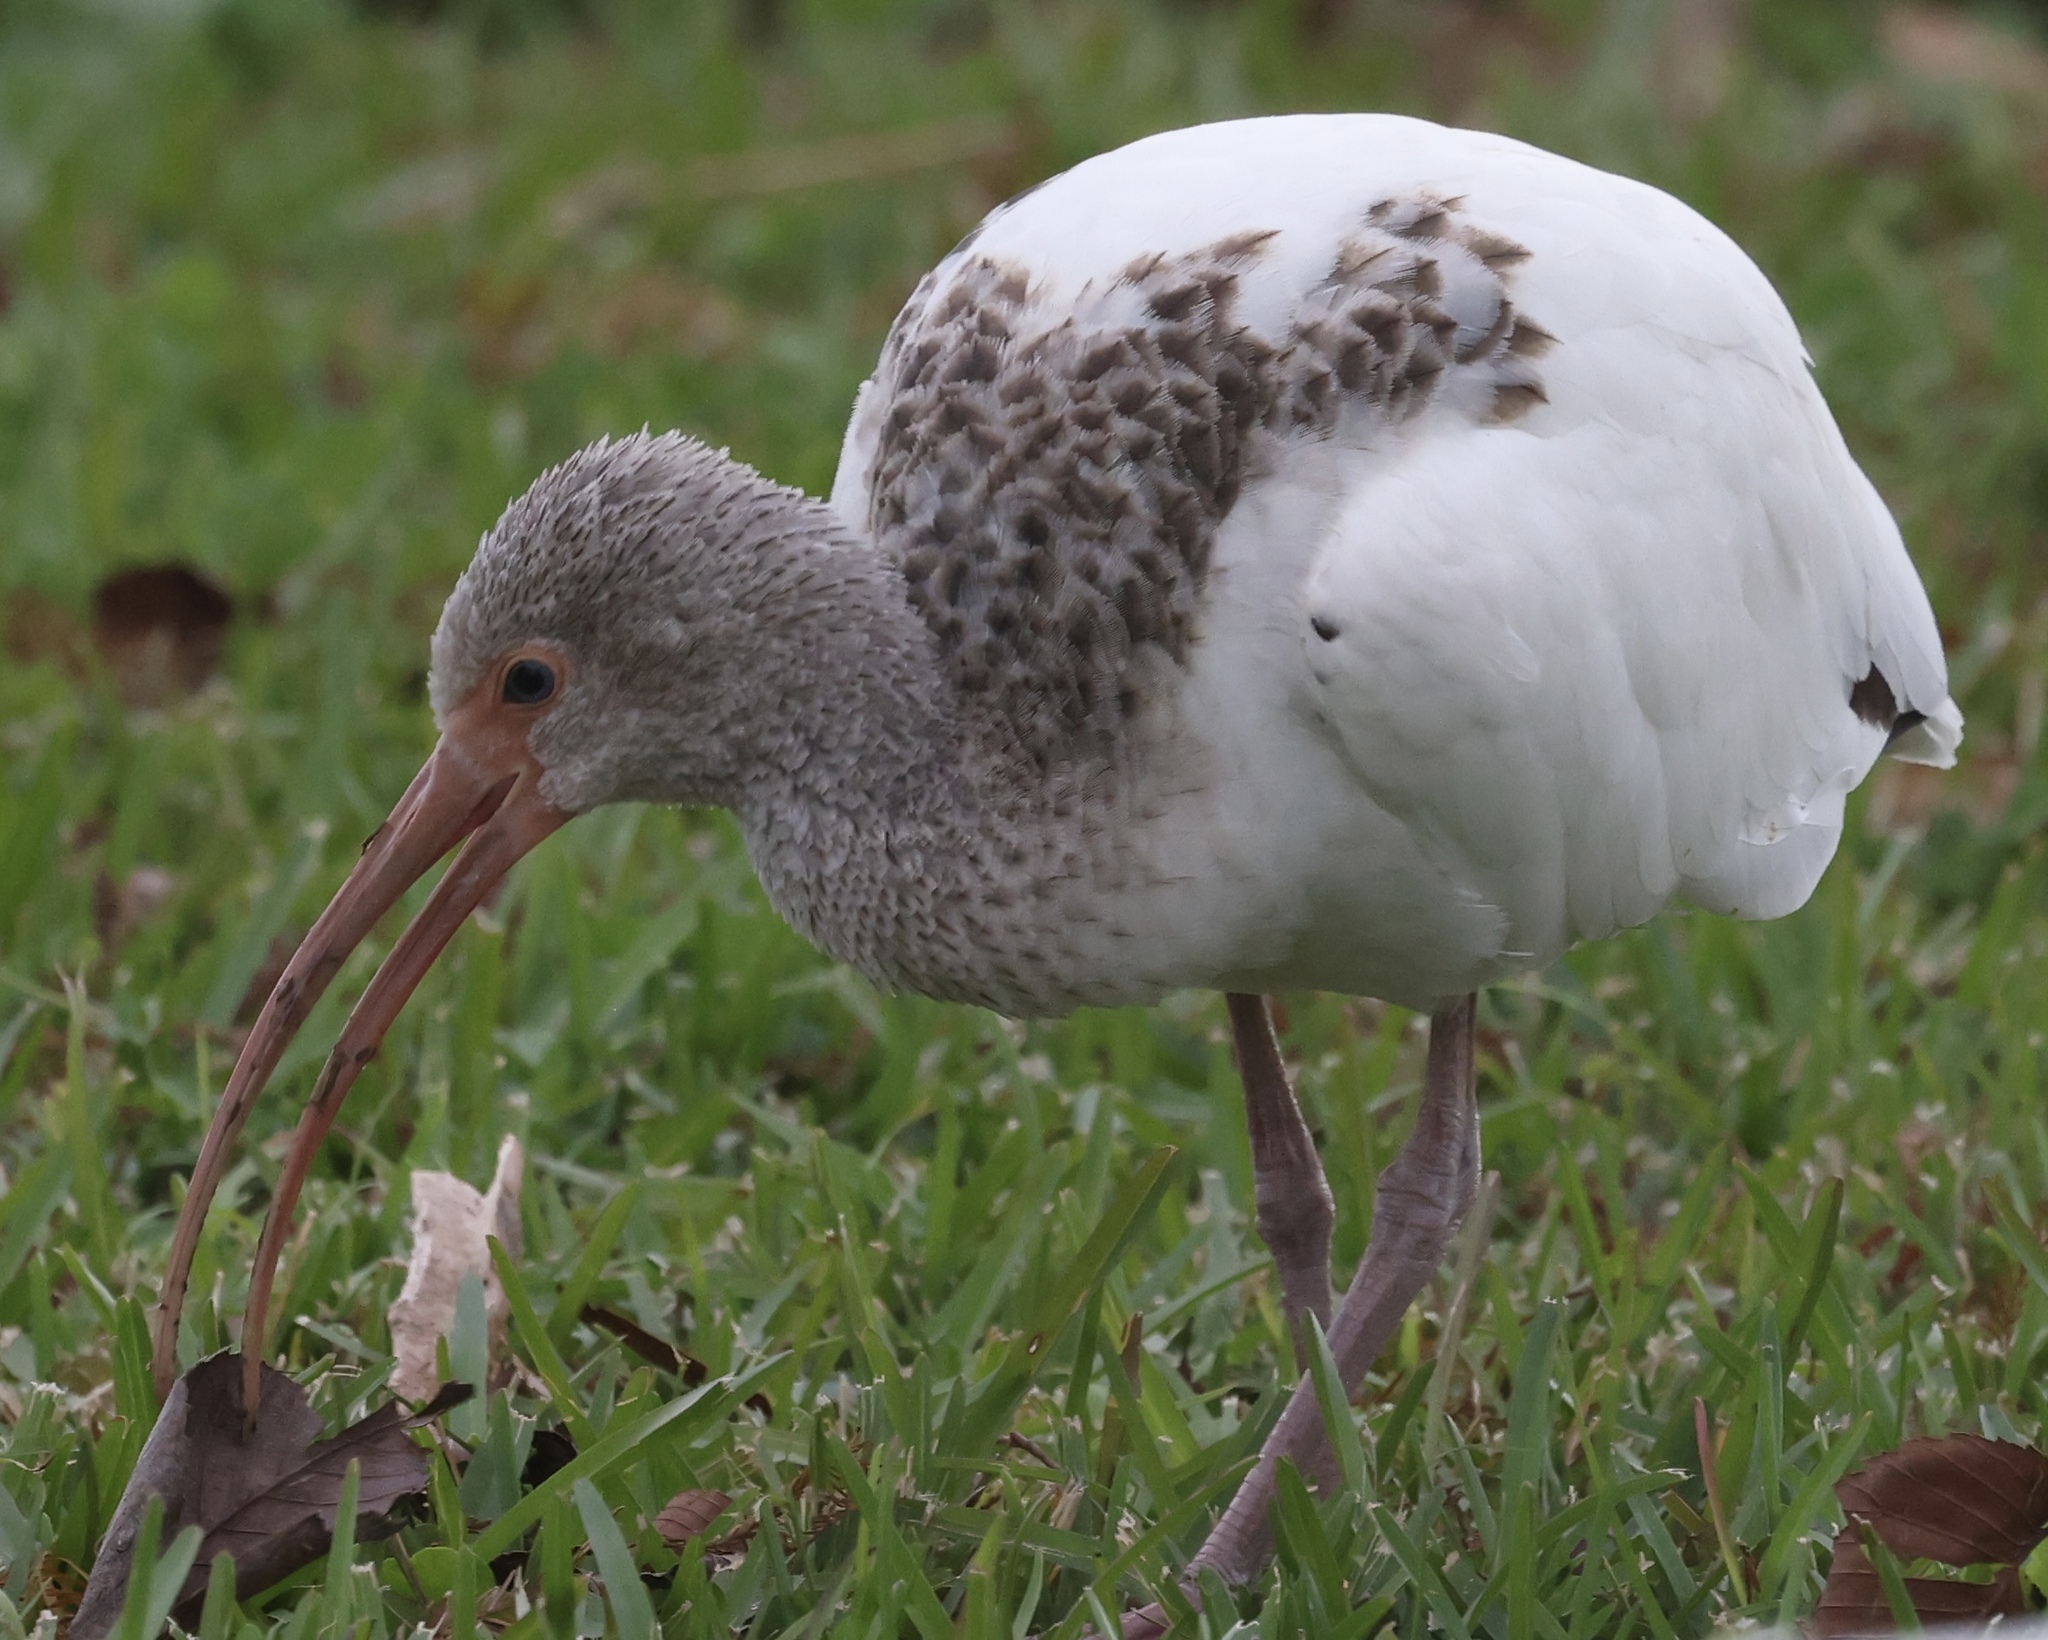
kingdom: Animalia
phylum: Chordata
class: Aves
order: Pelecaniformes
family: Threskiornithidae
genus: Eudocimus
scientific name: Eudocimus albus
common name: White ibis
